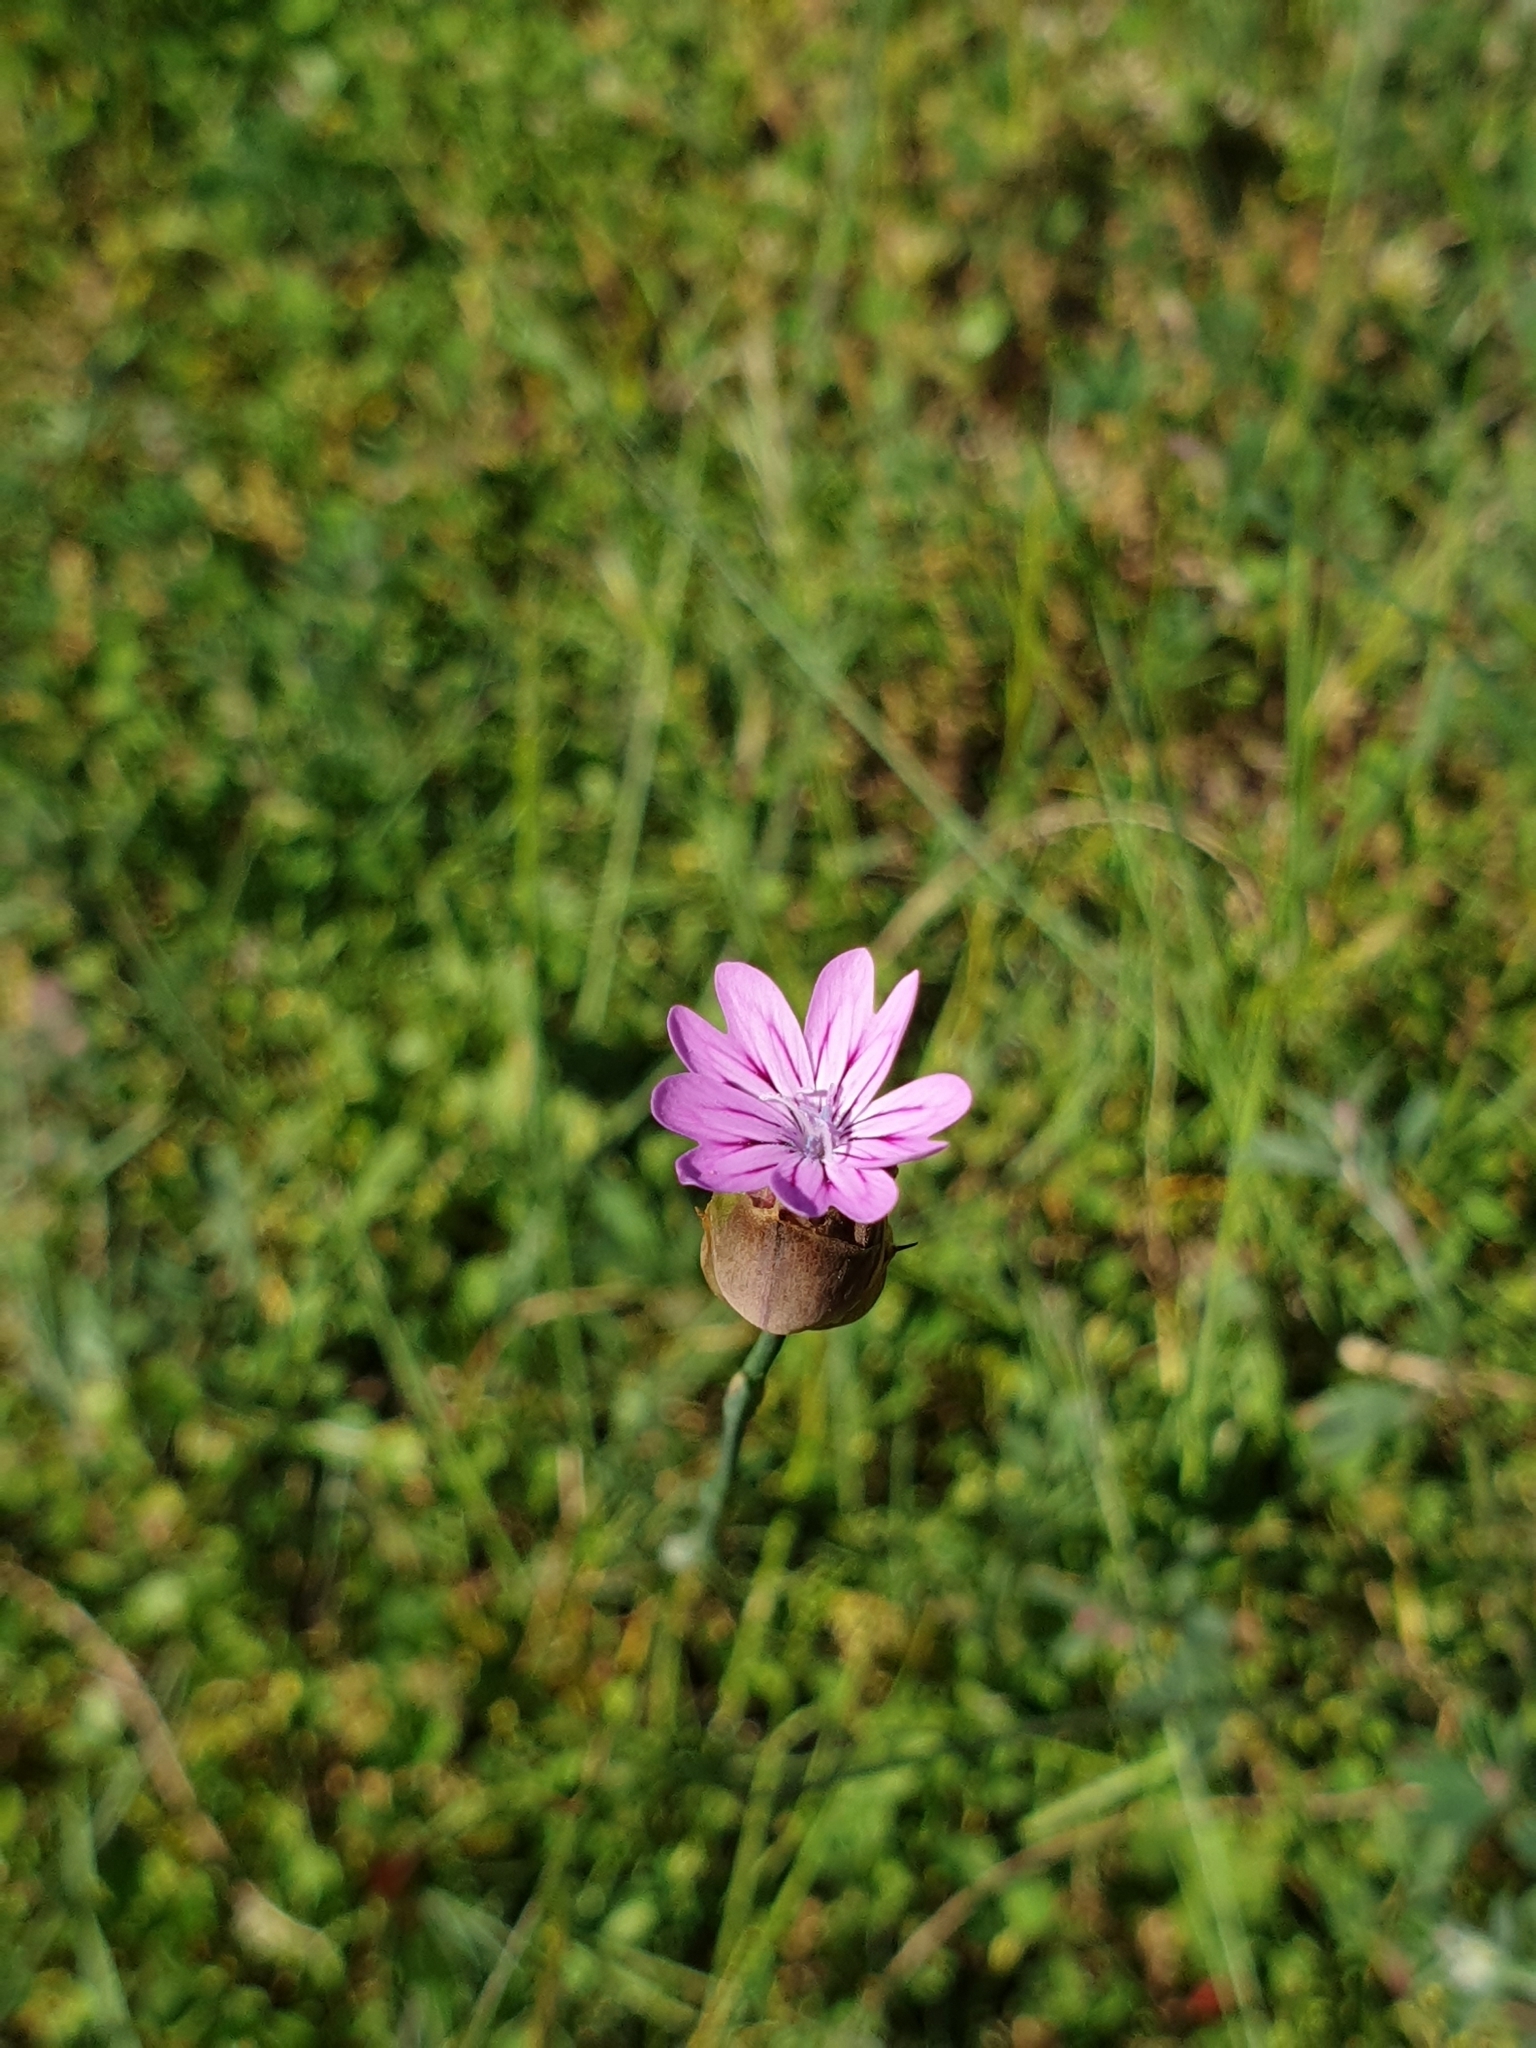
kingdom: Plantae
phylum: Tracheophyta
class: Magnoliopsida
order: Caryophyllales
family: Caryophyllaceae
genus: Petrorhagia
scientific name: Petrorhagia
